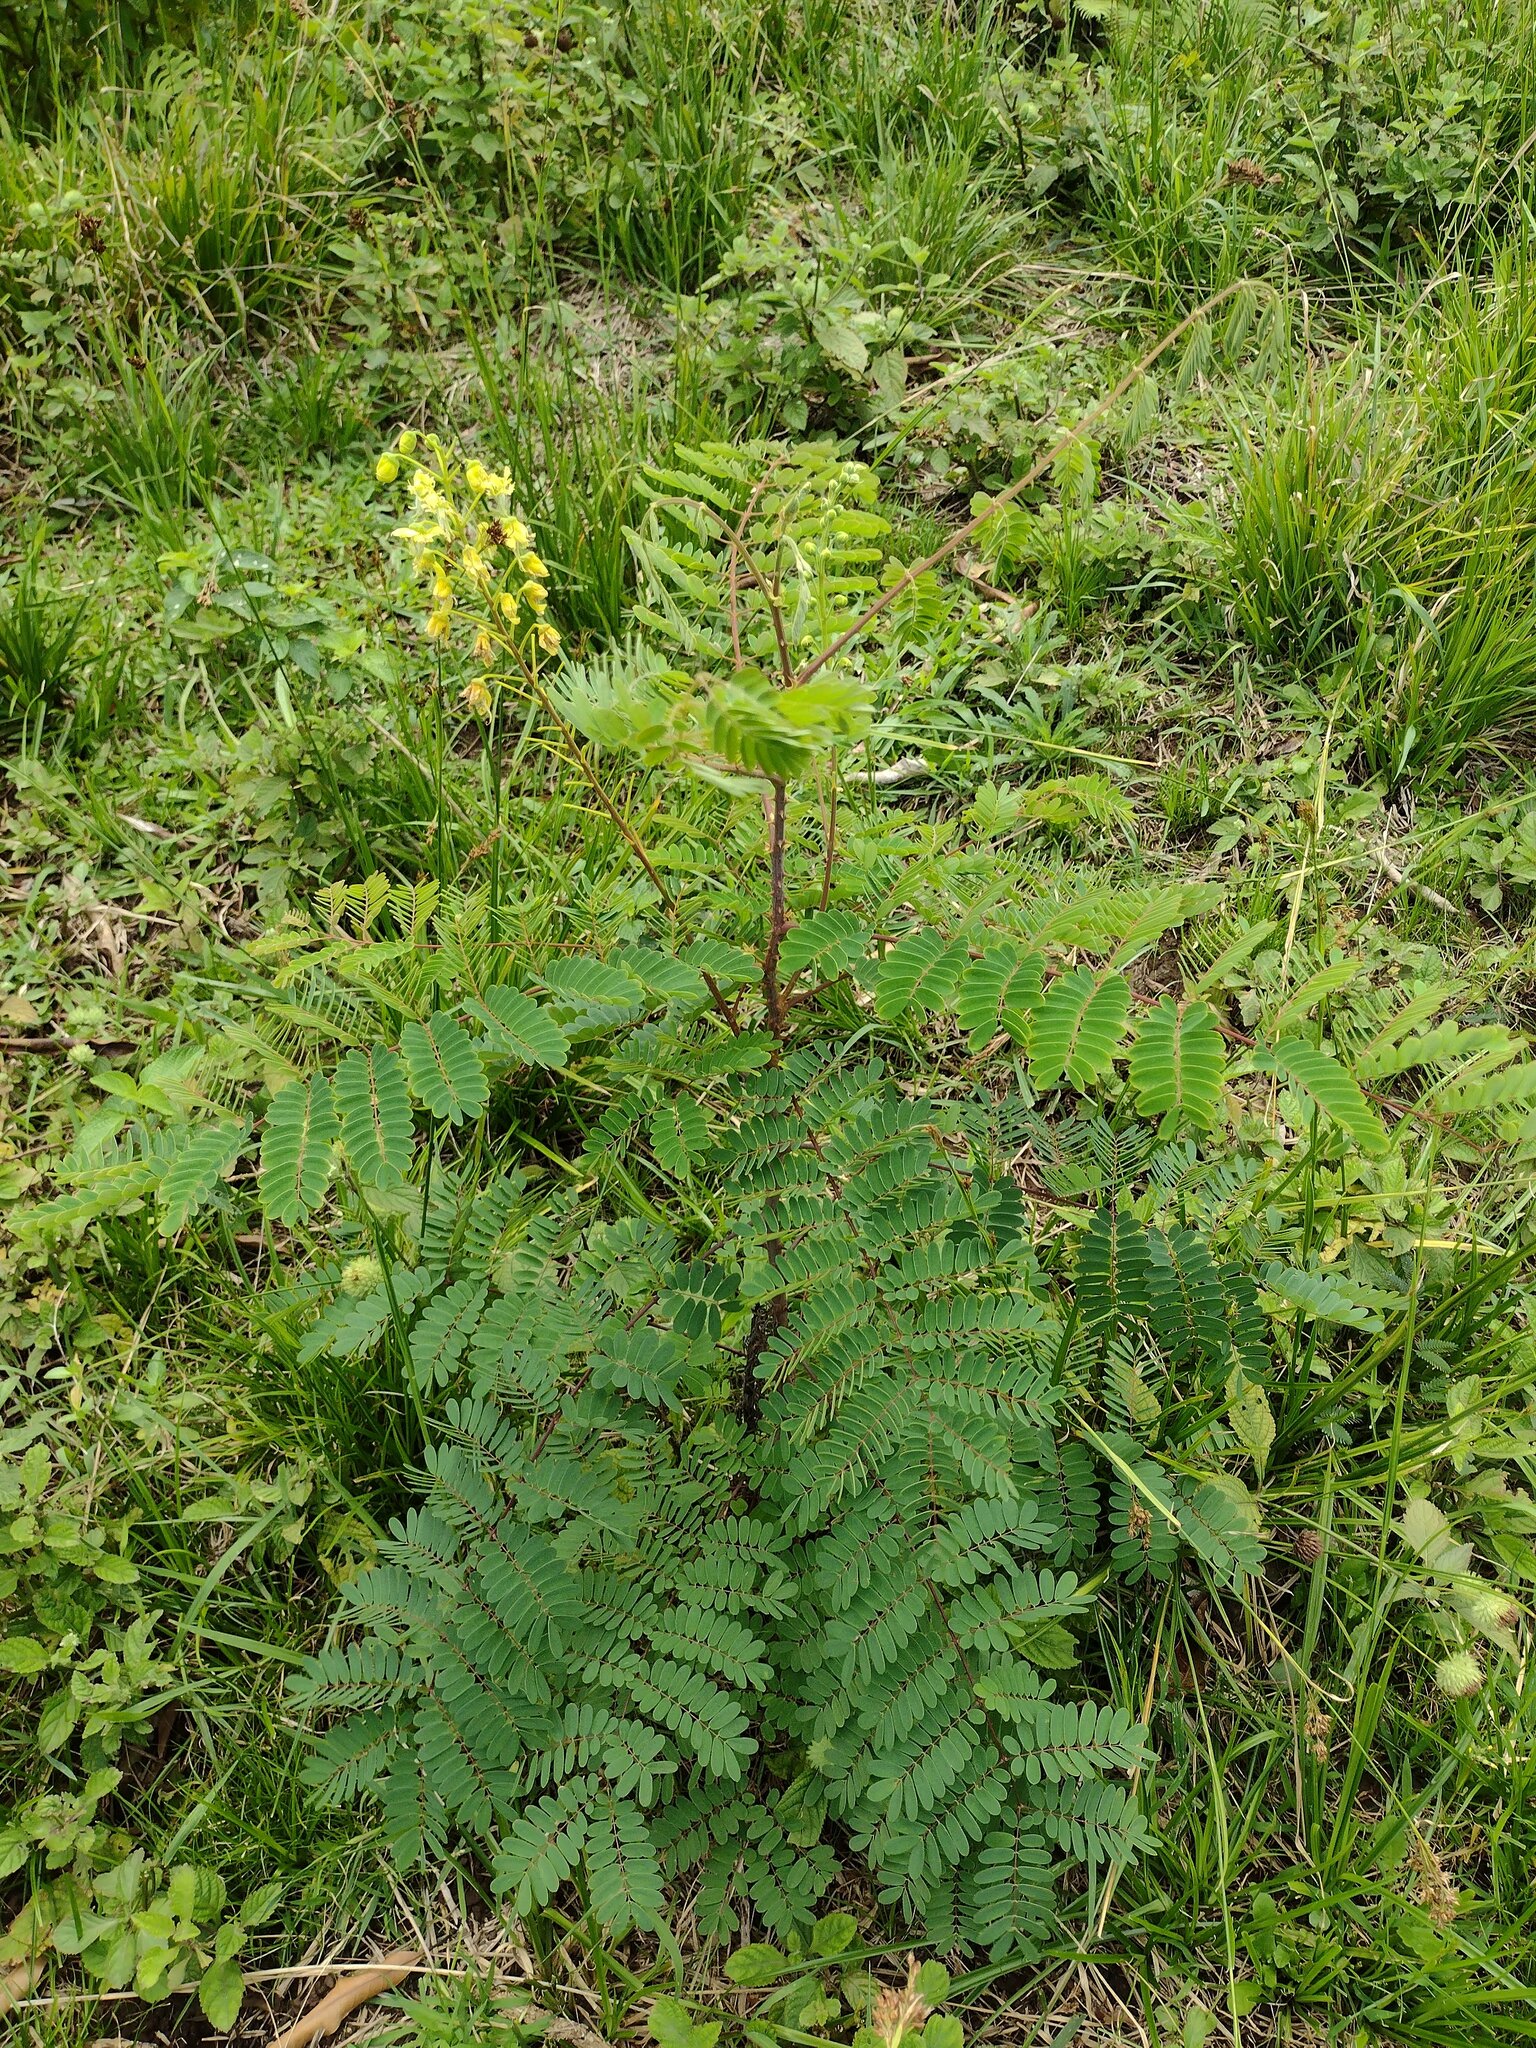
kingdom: Plantae
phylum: Tracheophyta
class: Magnoliopsida
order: Fabales
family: Fabaceae
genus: Biancaea
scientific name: Biancaea decapetala
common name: Cat's claw
